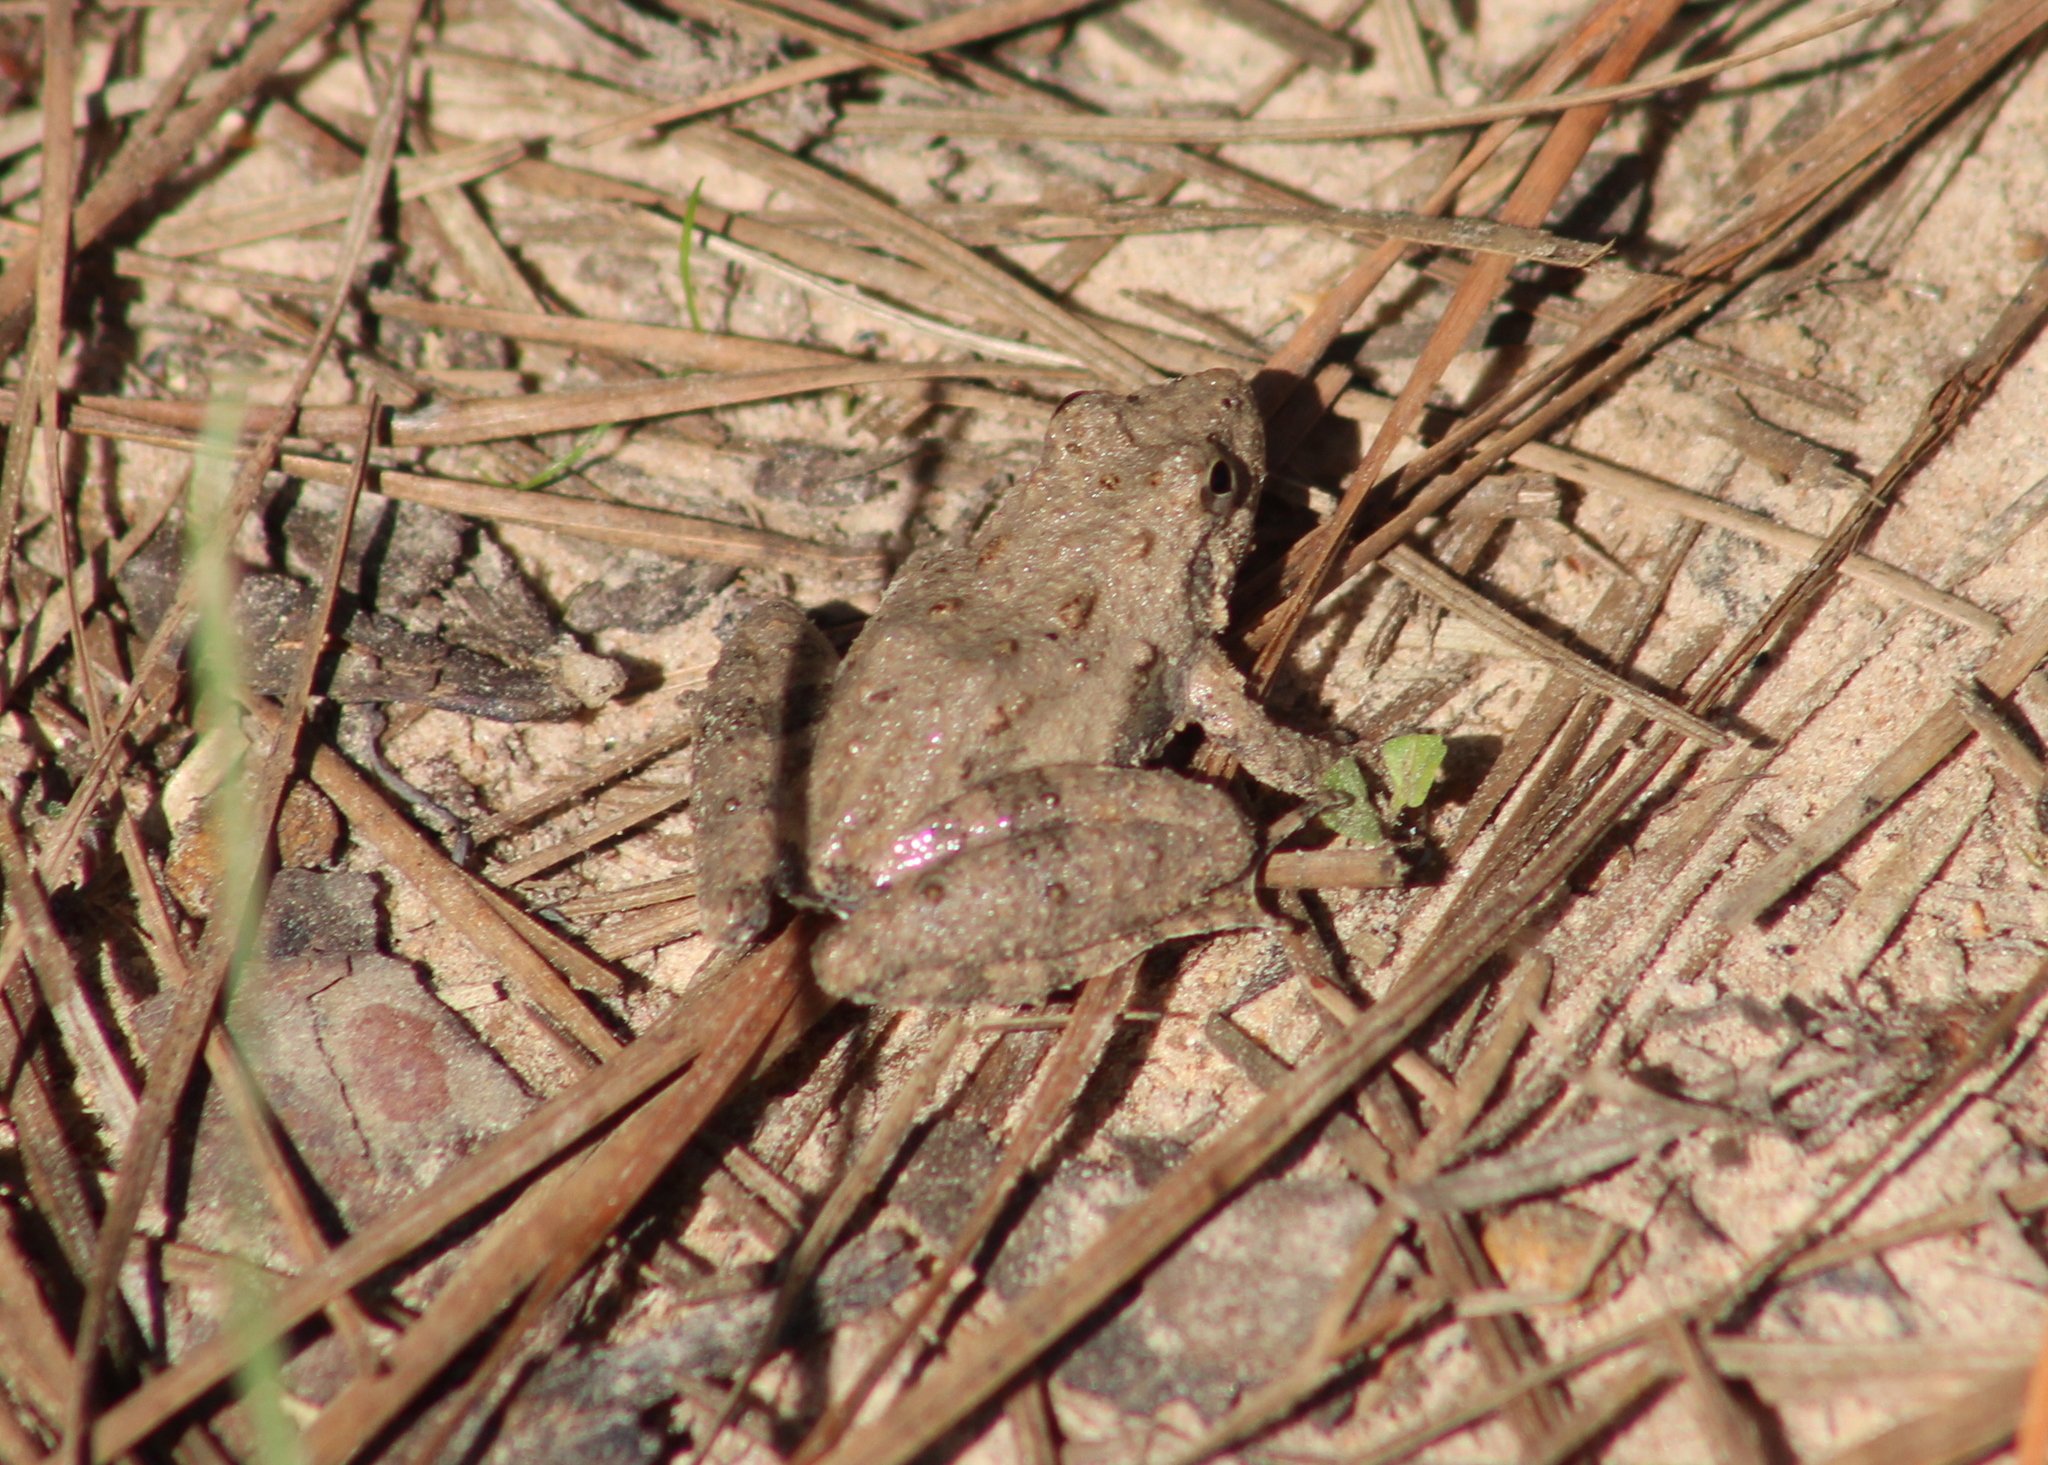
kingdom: Animalia
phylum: Chordata
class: Amphibia
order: Anura
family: Hylidae
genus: Acris
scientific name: Acris blanchardi
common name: Blanchard's cricket frog
